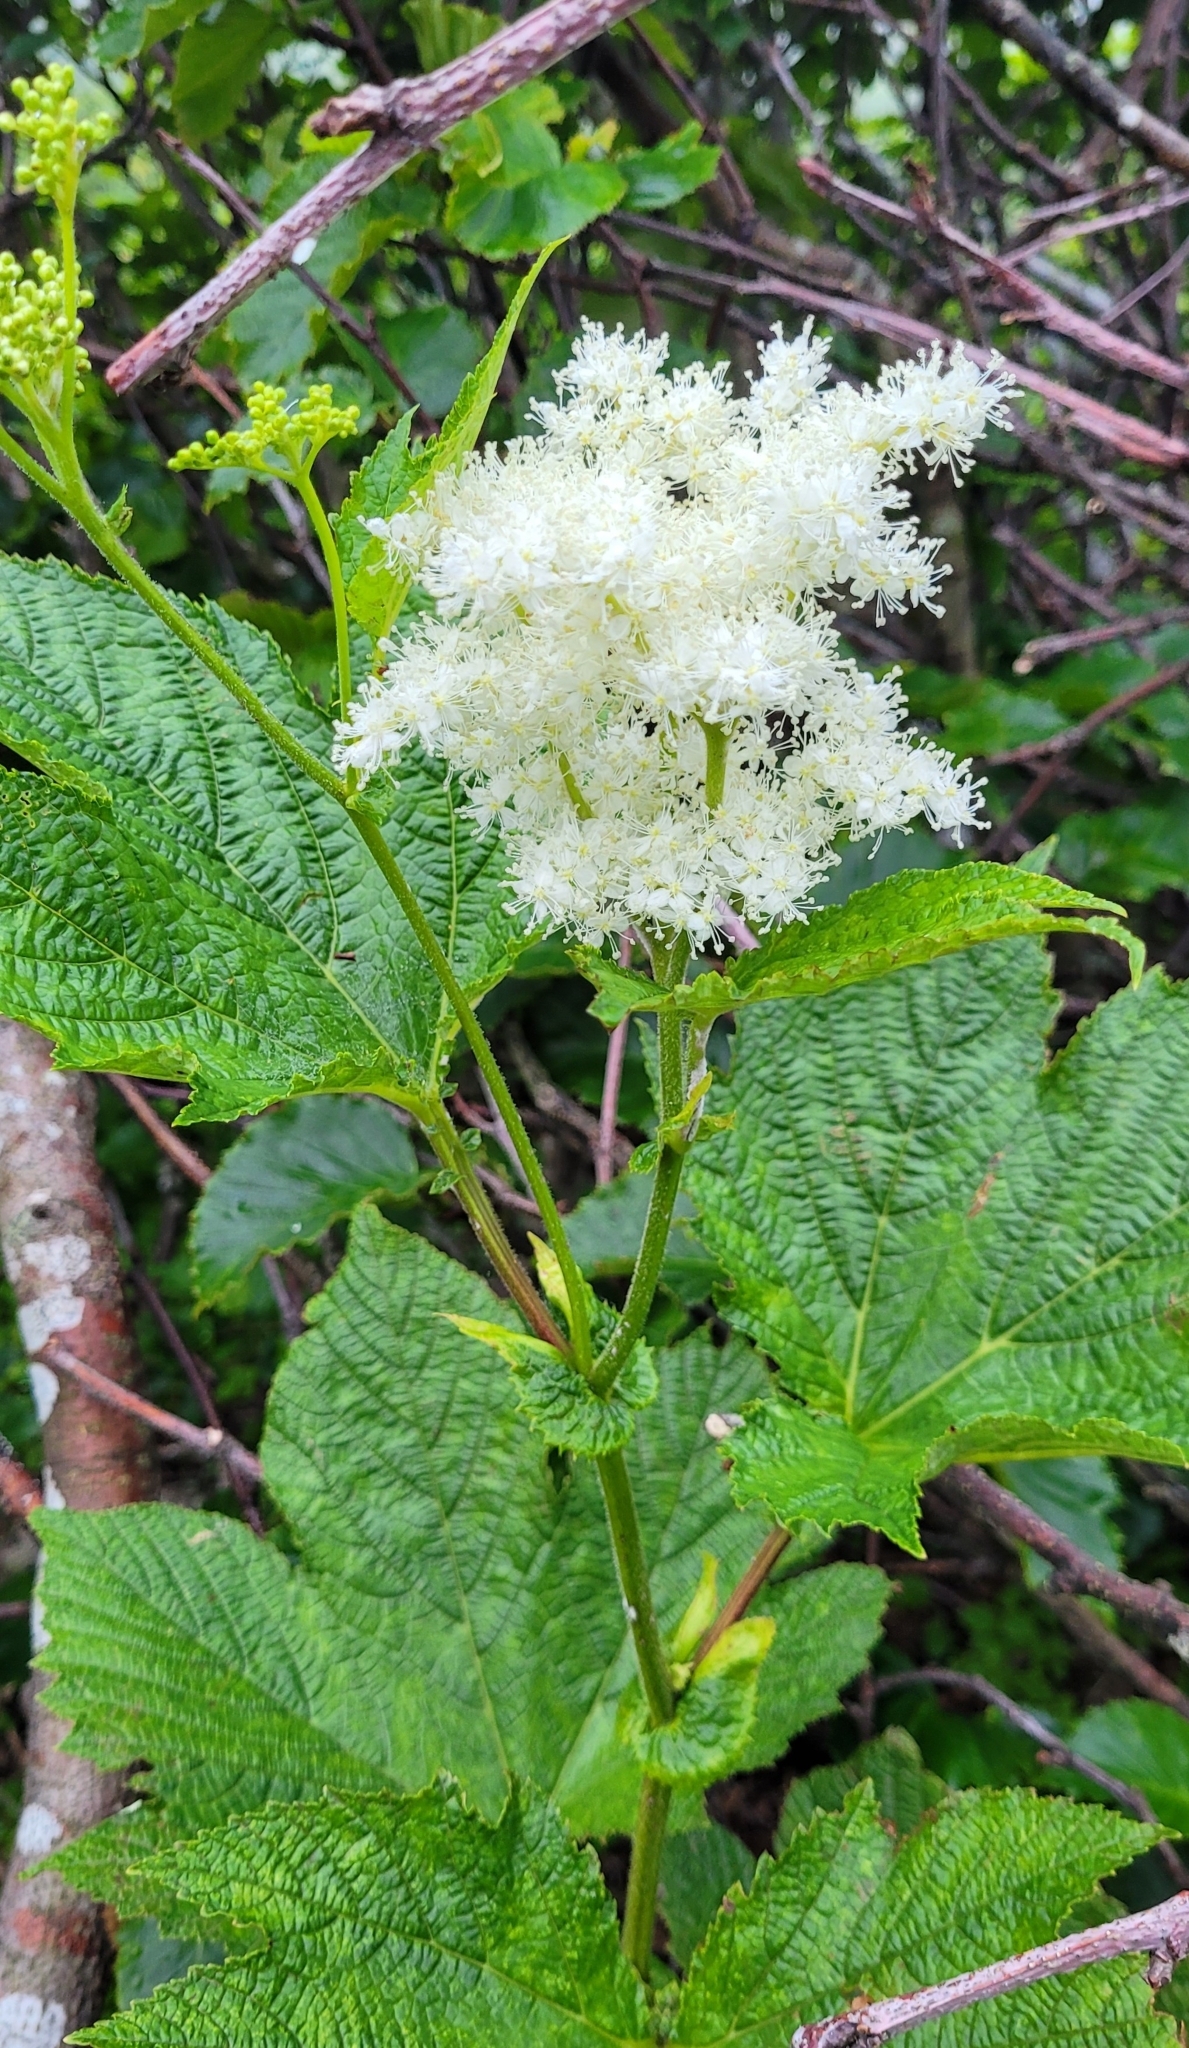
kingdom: Plantae
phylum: Tracheophyta
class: Magnoliopsida
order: Rosales
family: Rosaceae
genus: Filipendula
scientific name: Filipendula camtschatica
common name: Giant meadowsweet
